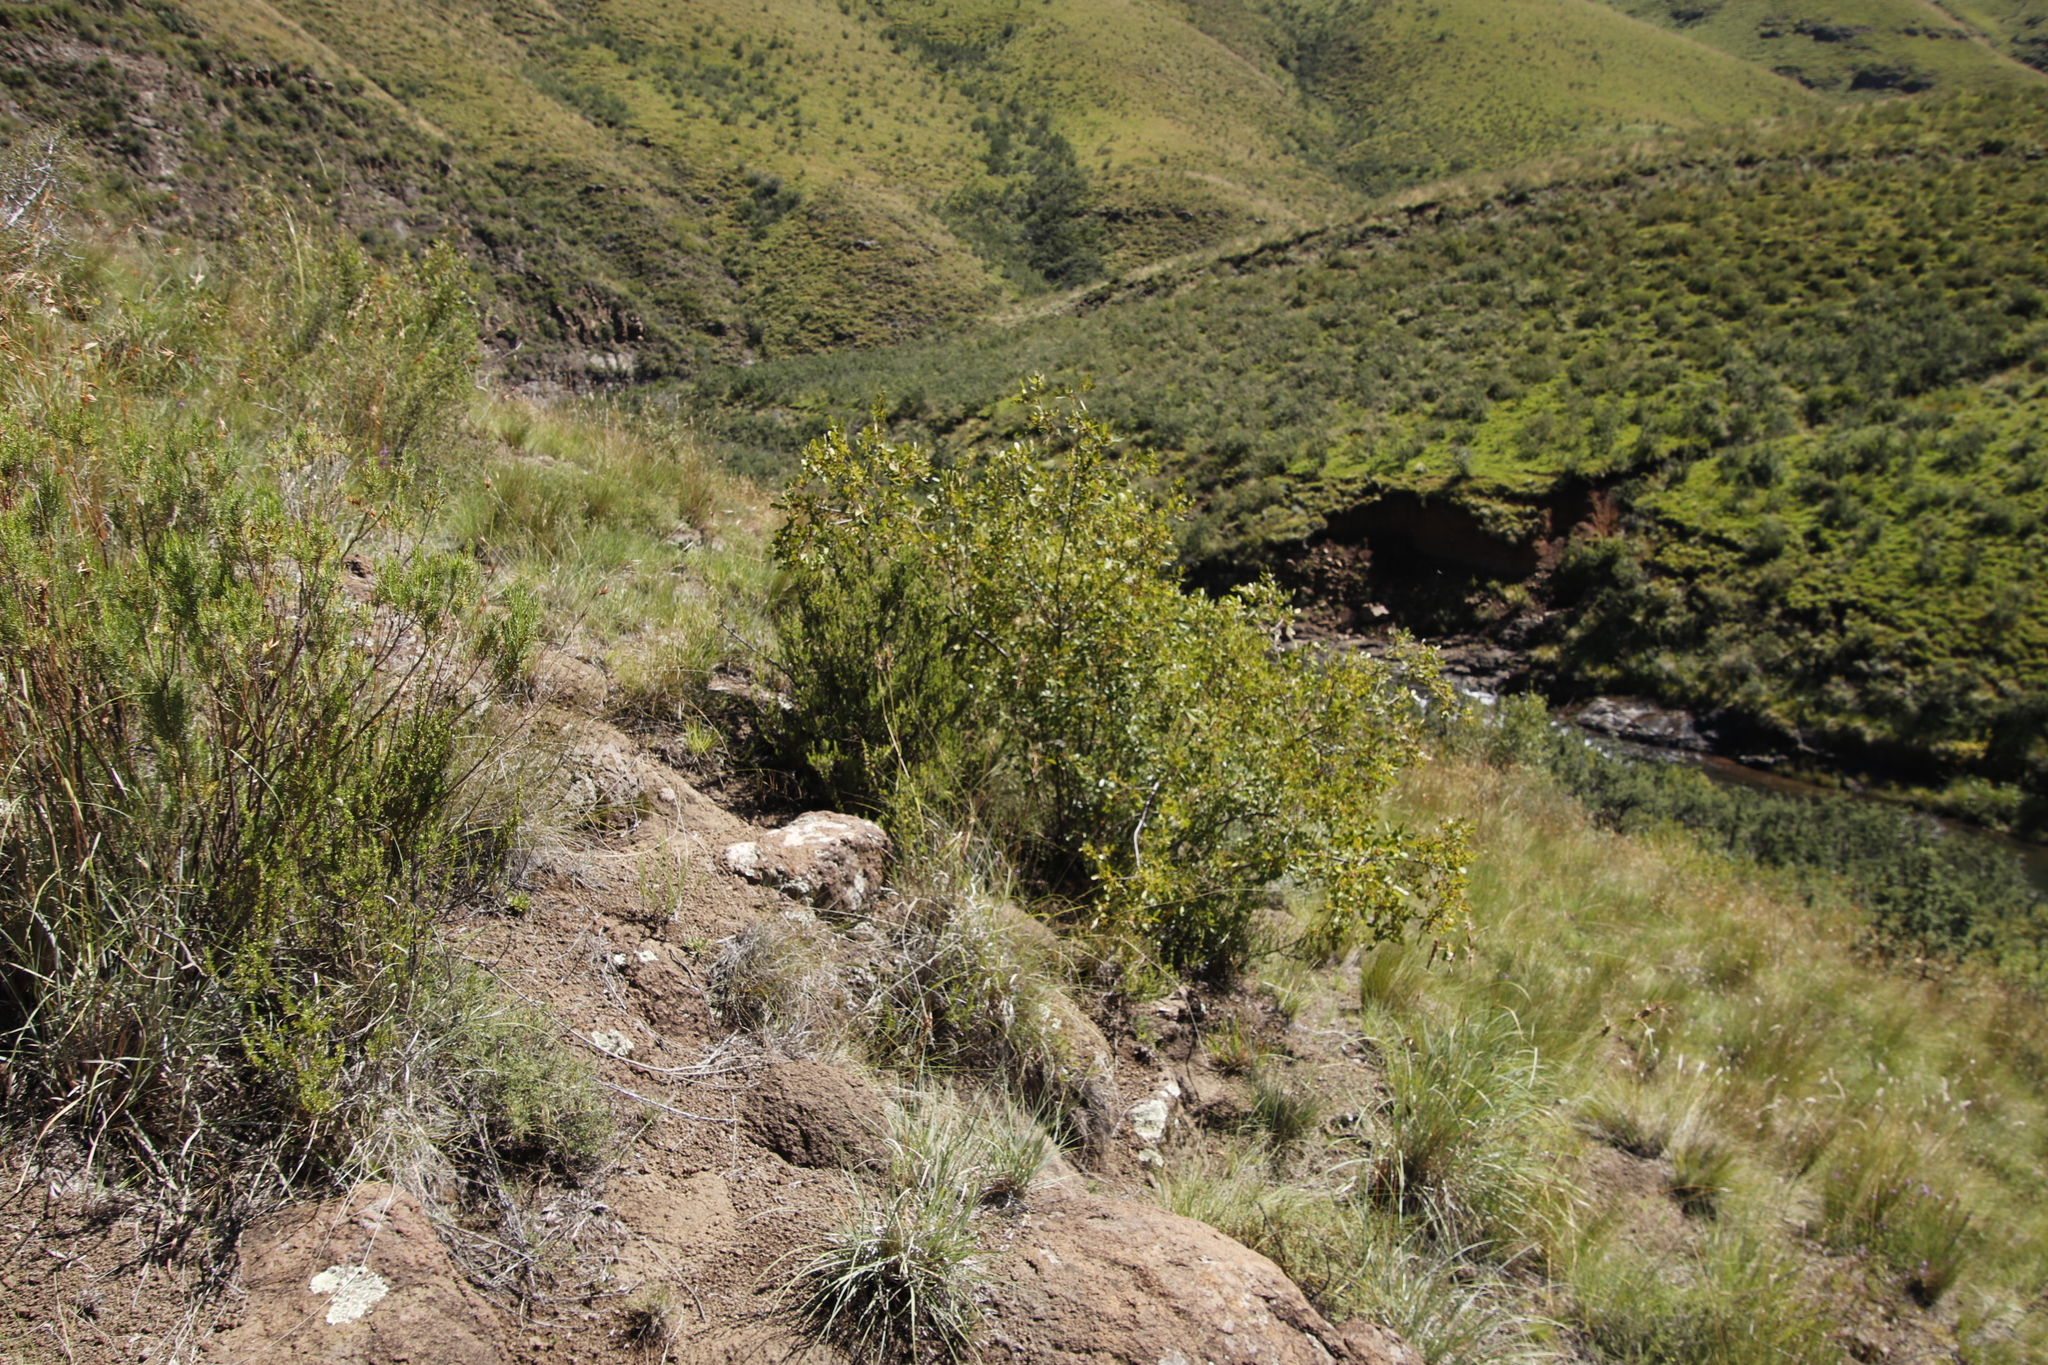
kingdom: Plantae
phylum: Tracheophyta
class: Magnoliopsida
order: Sapindales
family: Anacardiaceae
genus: Searsia
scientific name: Searsia divaricata
